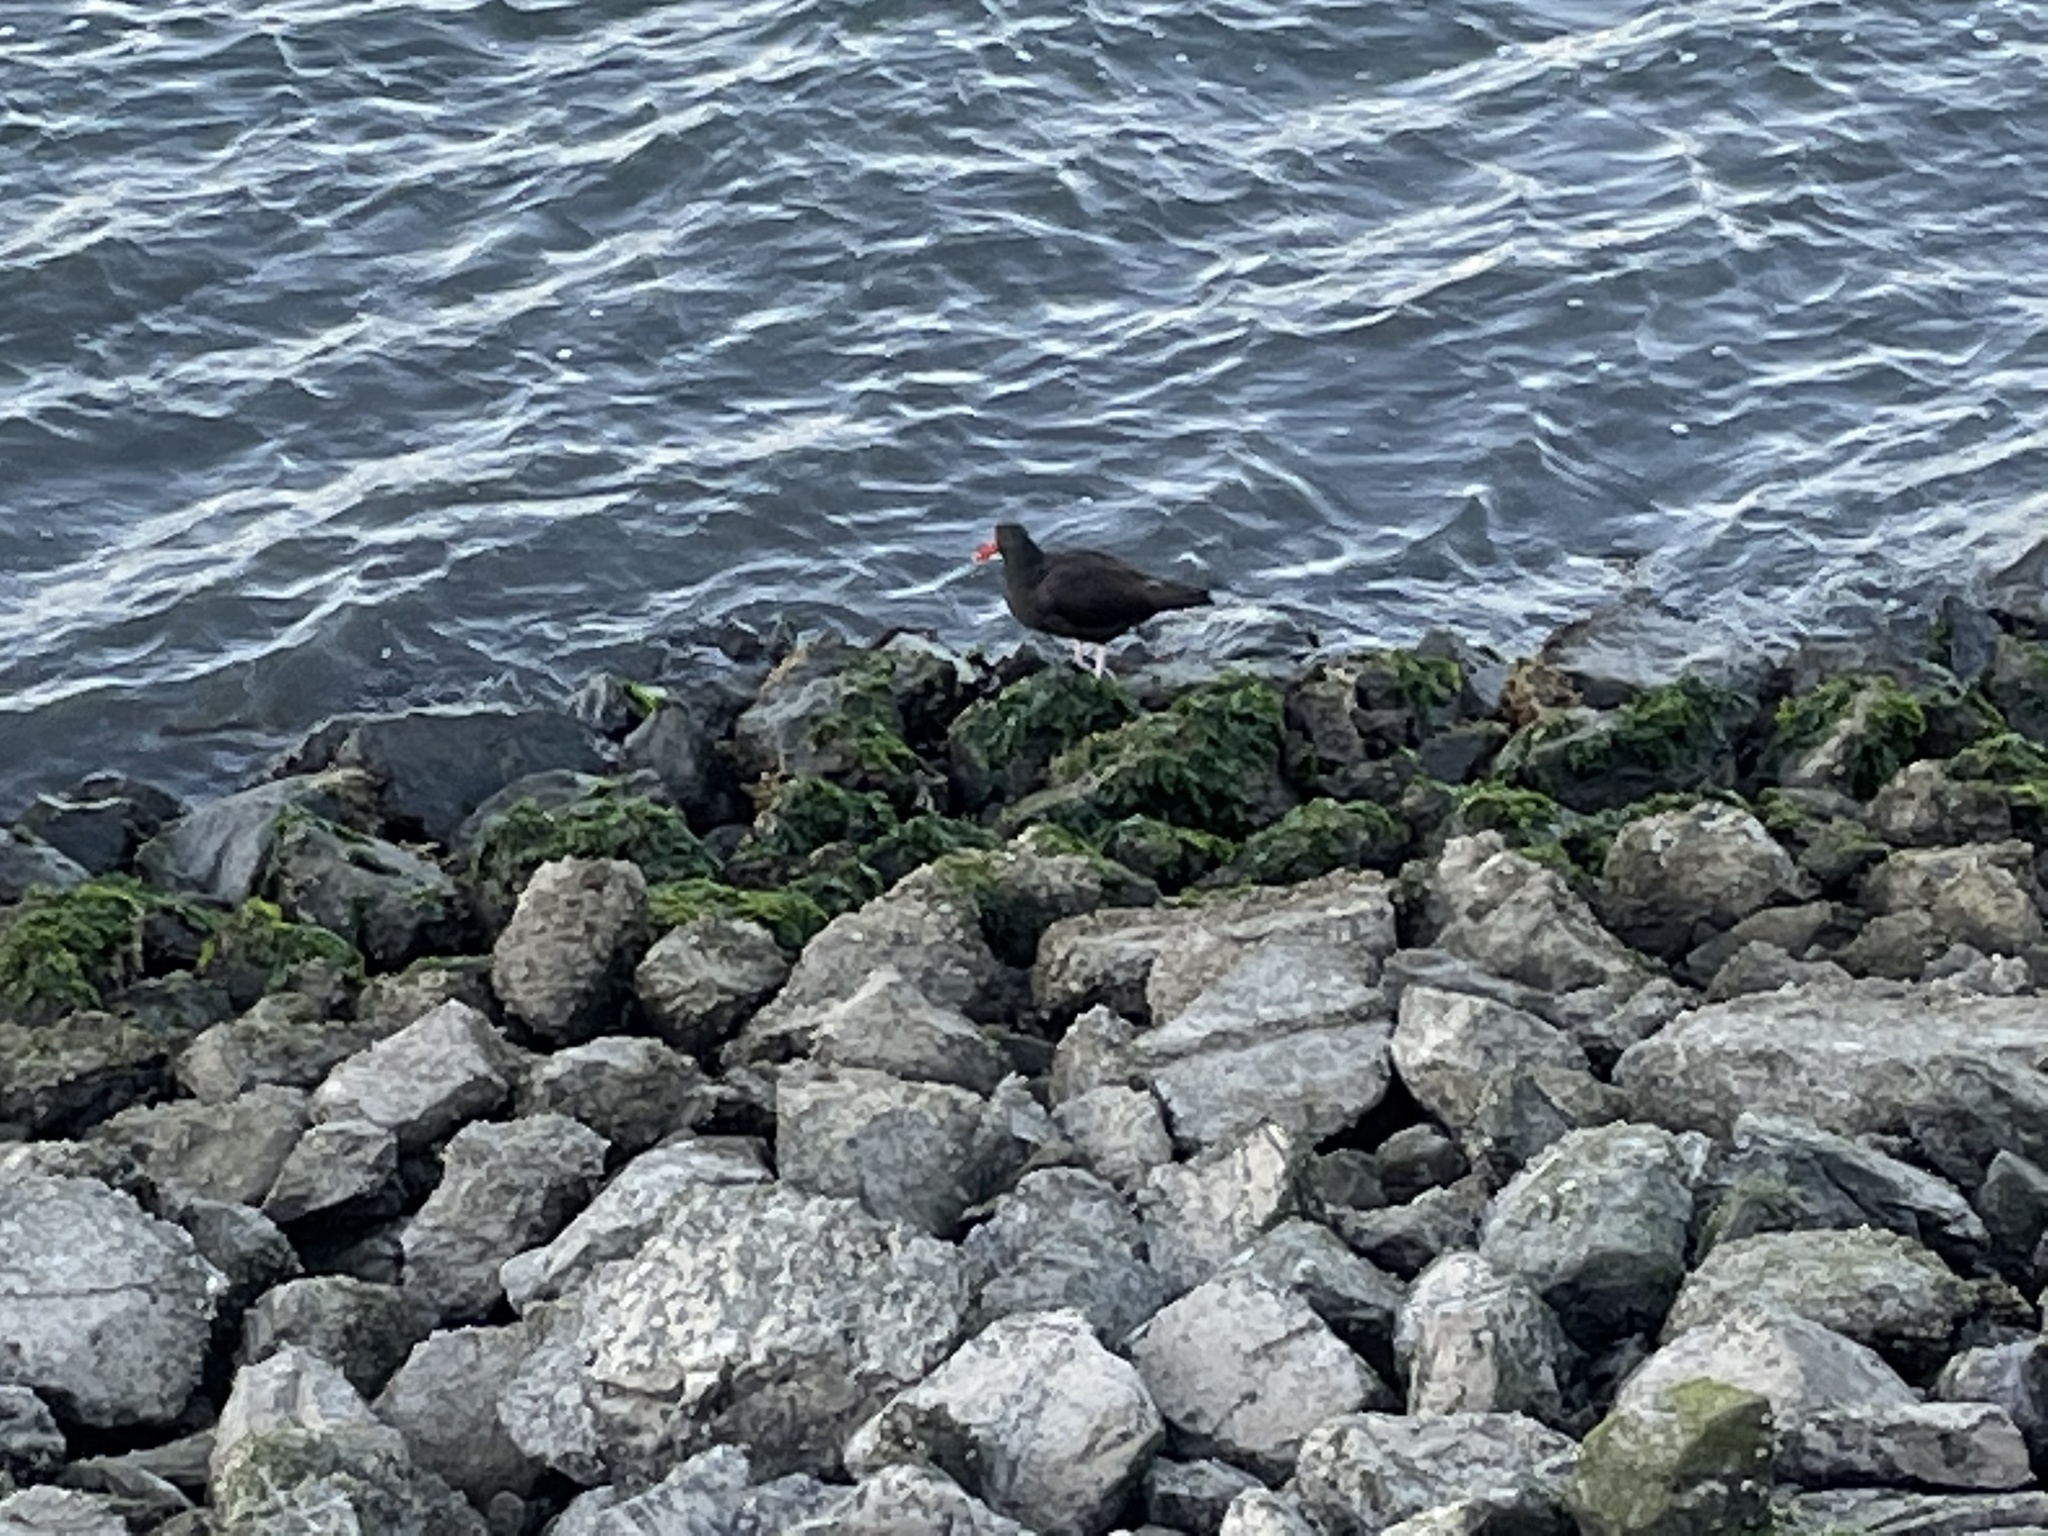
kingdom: Animalia
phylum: Chordata
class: Aves
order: Charadriiformes
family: Haematopodidae
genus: Haematopus
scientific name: Haematopus bachmani
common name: Black oystercatcher
